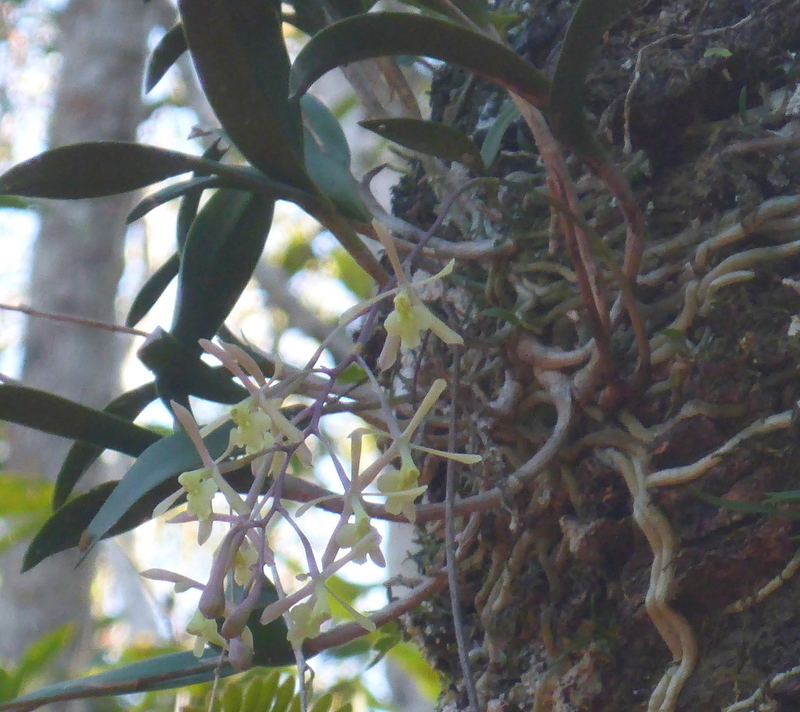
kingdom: Plantae
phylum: Tracheophyta
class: Liliopsida
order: Asparagales
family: Orchidaceae
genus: Epidendrum
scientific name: Epidendrum conopseum
